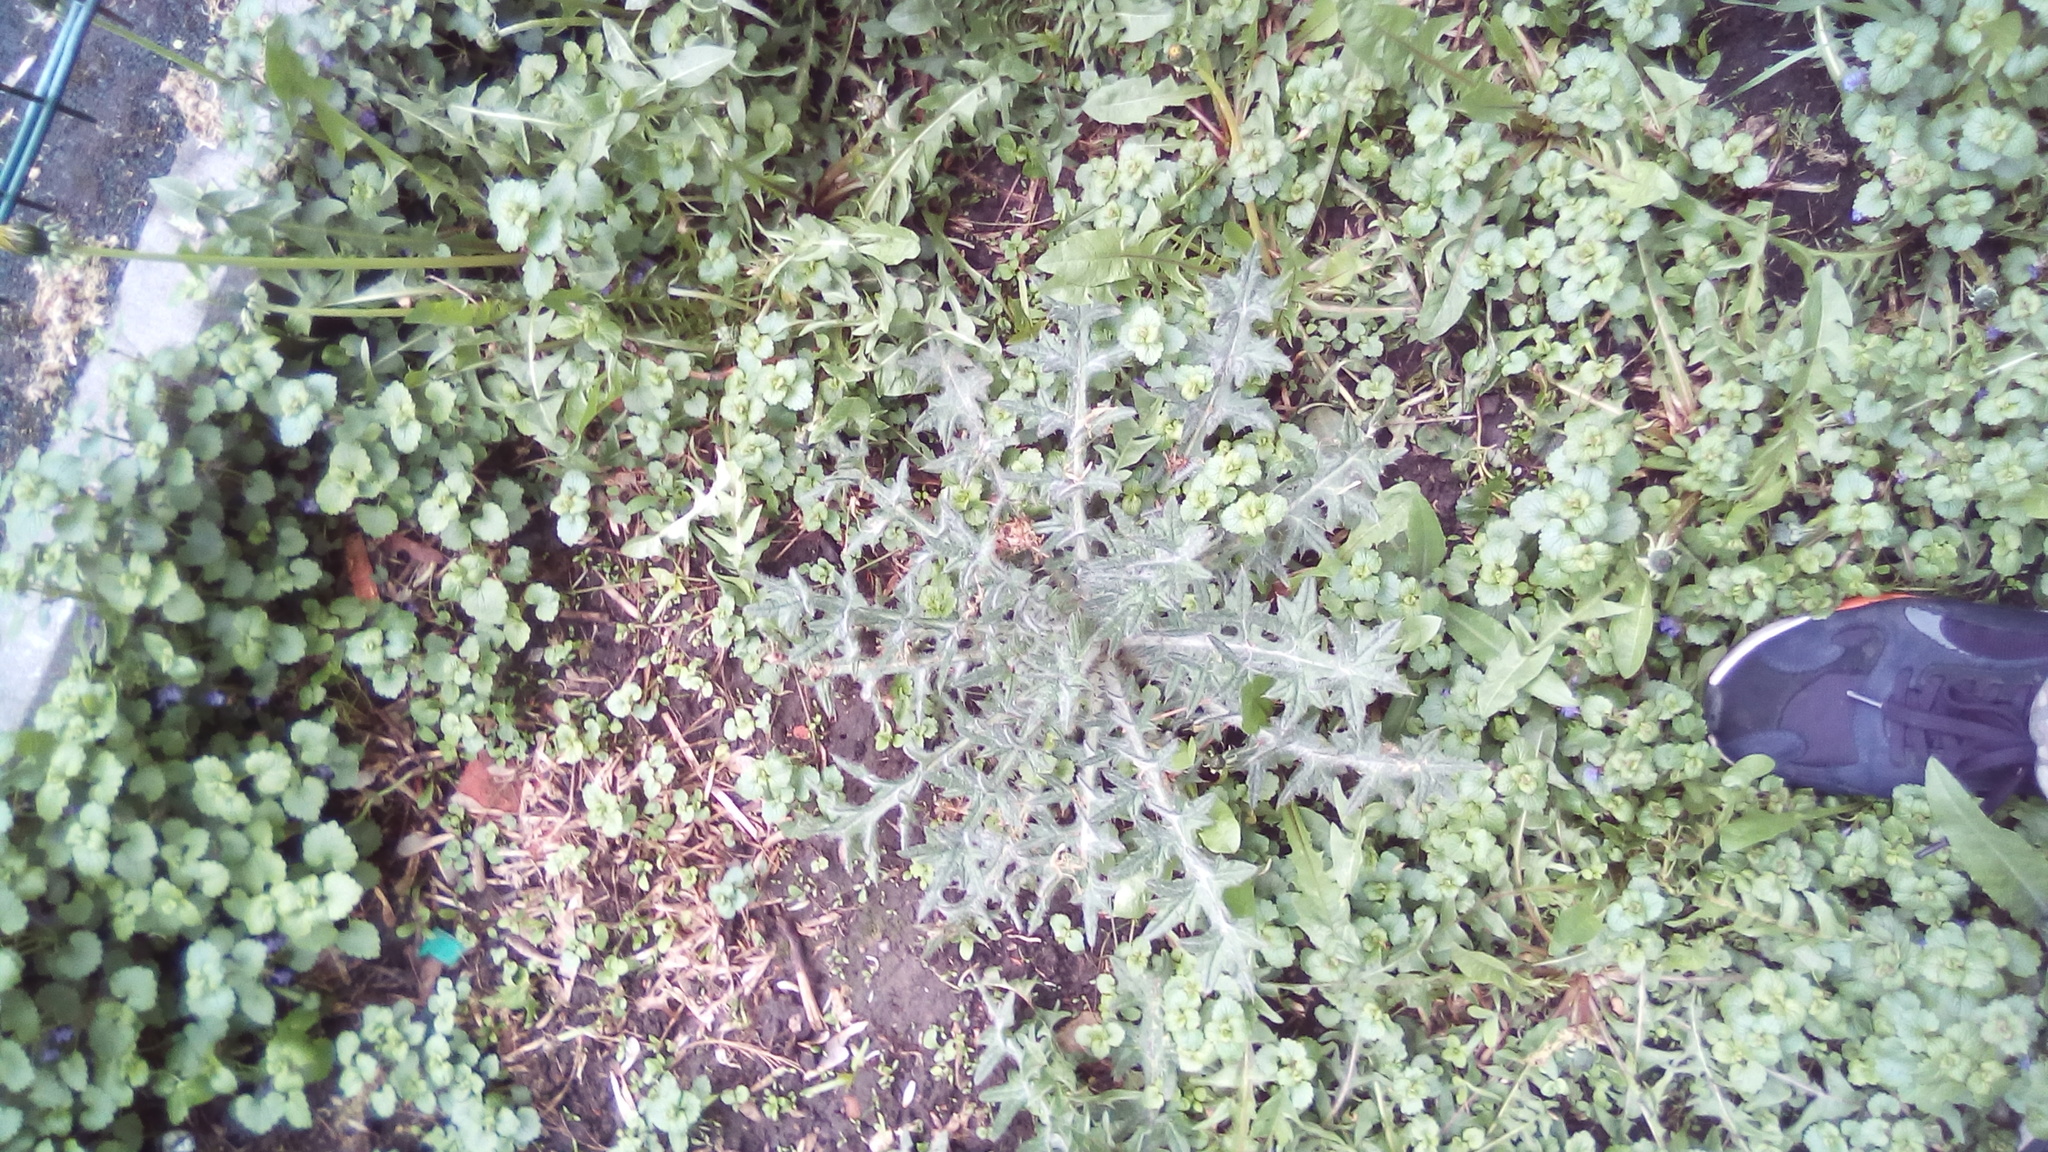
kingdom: Plantae
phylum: Tracheophyta
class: Magnoliopsida
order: Asterales
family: Asteraceae
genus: Cirsium
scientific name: Cirsium vulgare
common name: Bull thistle
